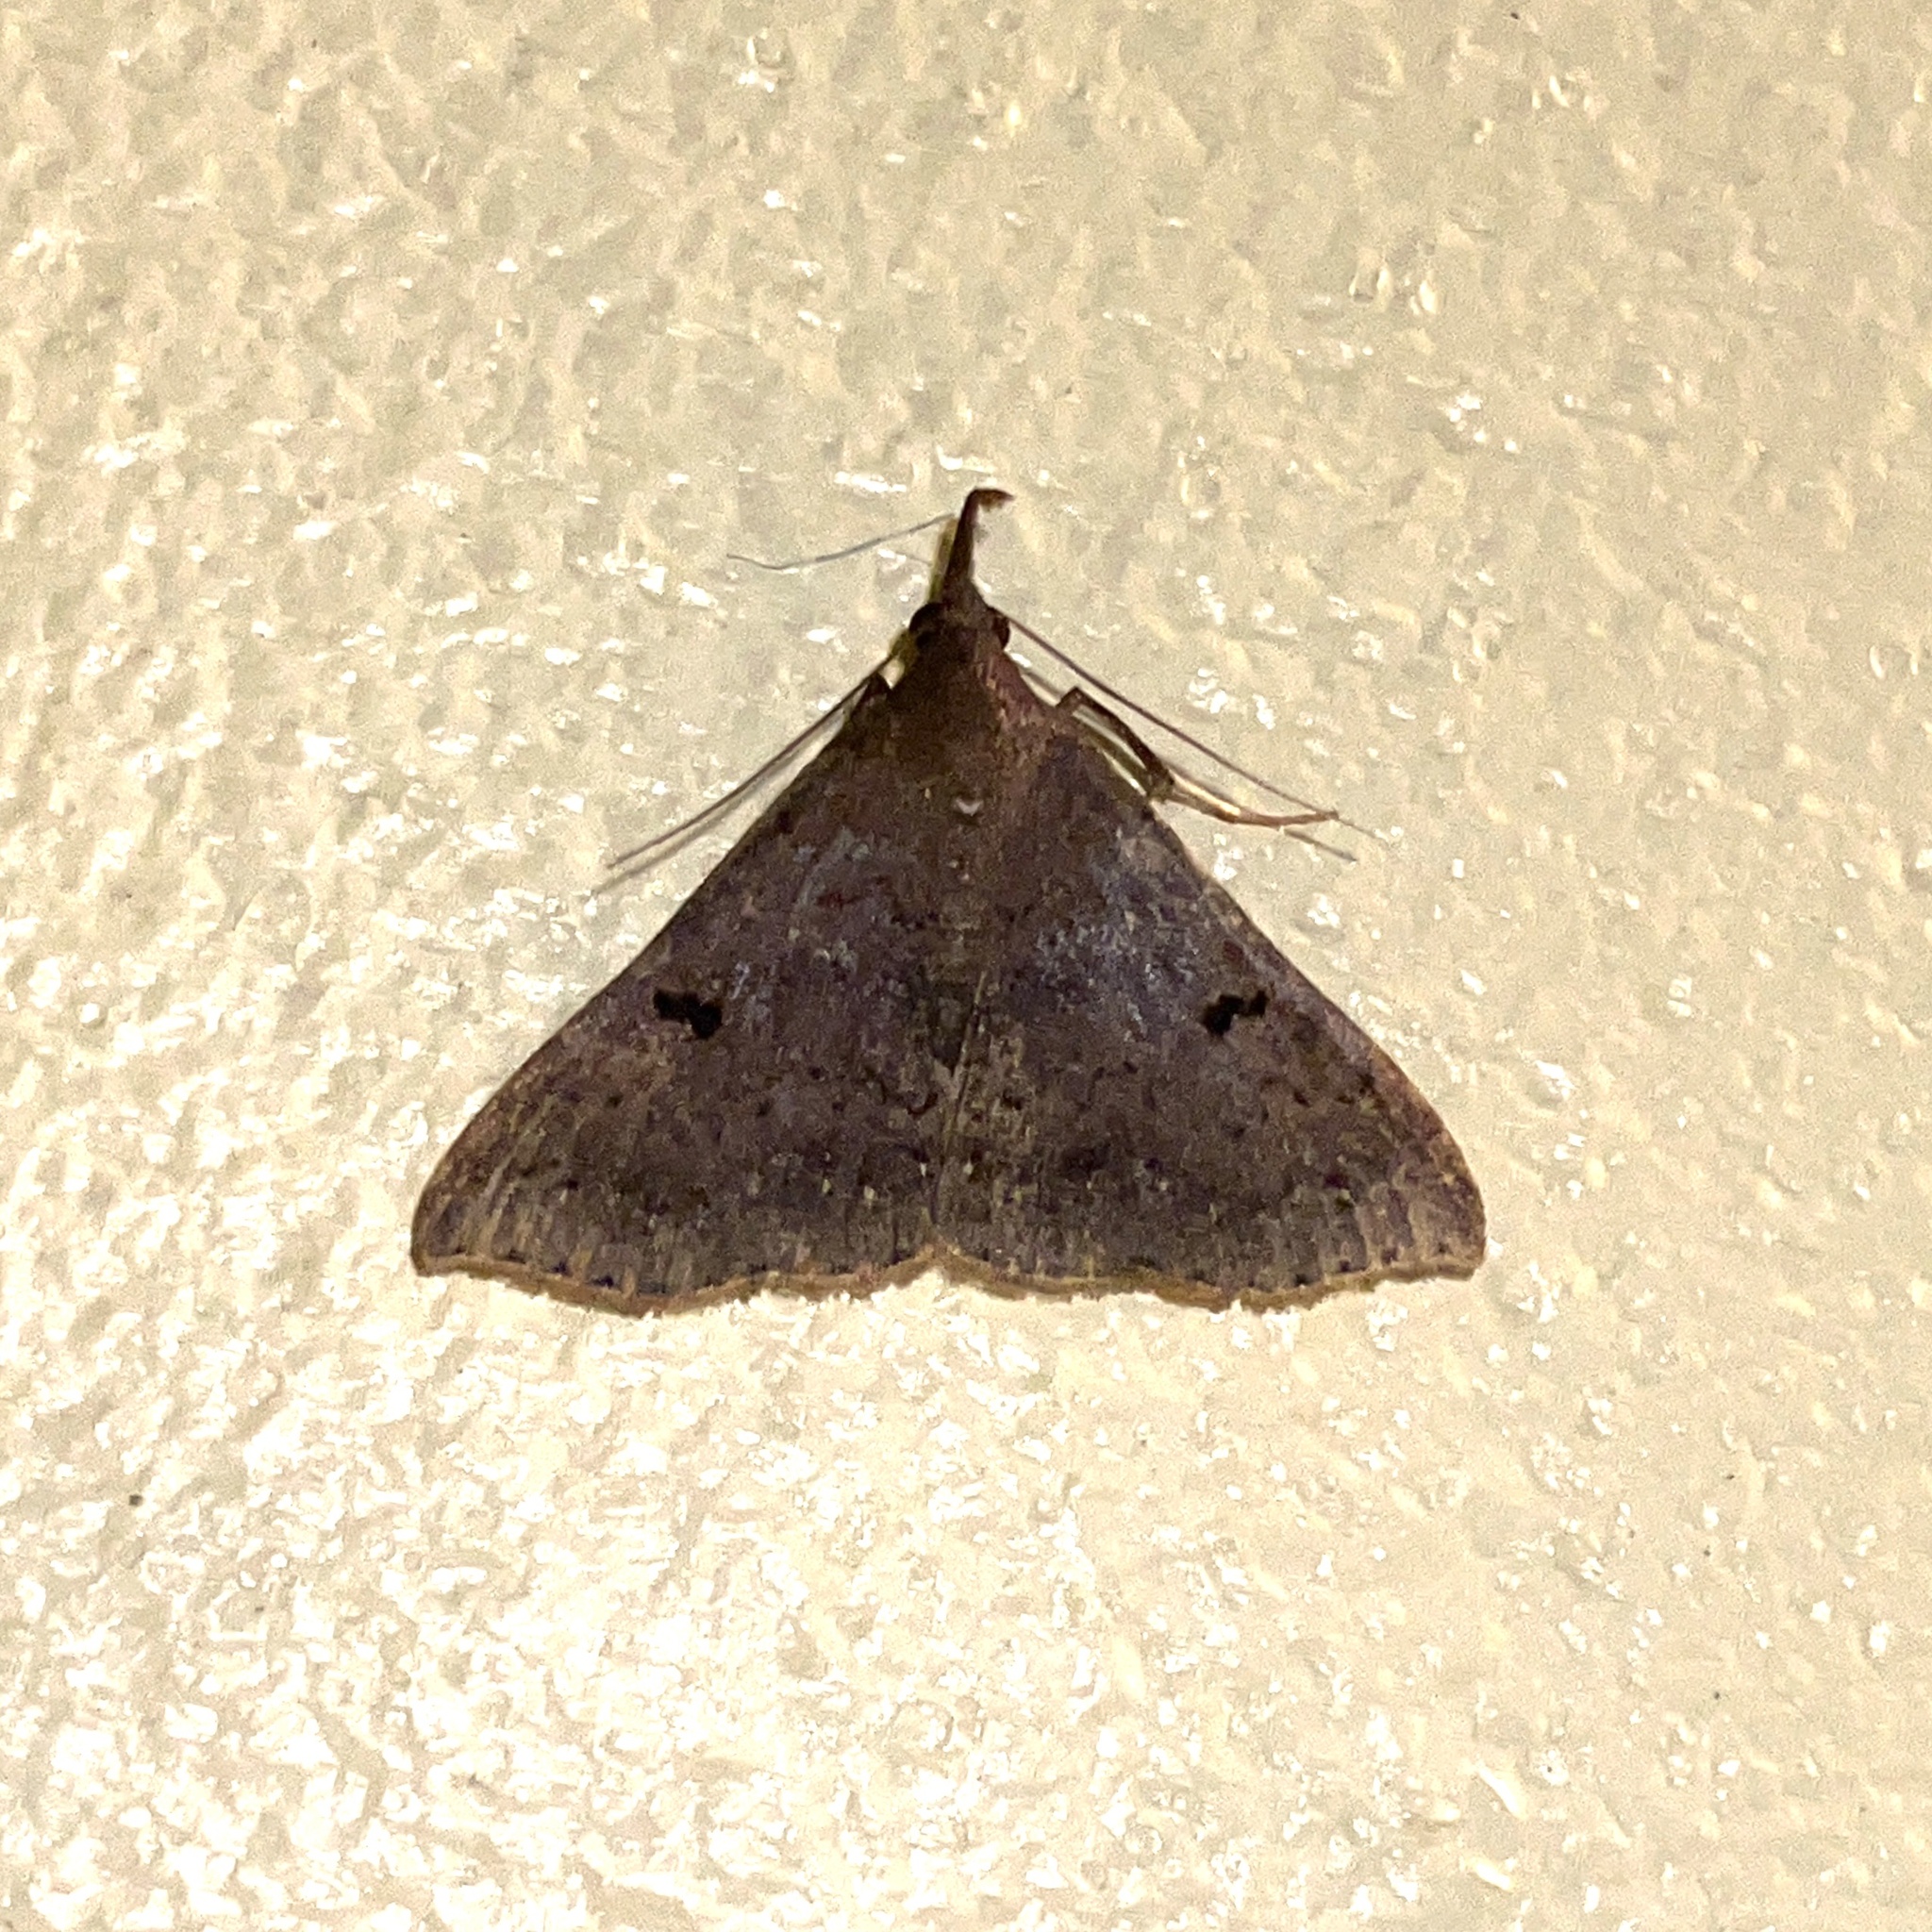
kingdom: Animalia
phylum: Arthropoda
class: Insecta
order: Lepidoptera
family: Erebidae
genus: Renia
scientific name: Renia bipunctata
